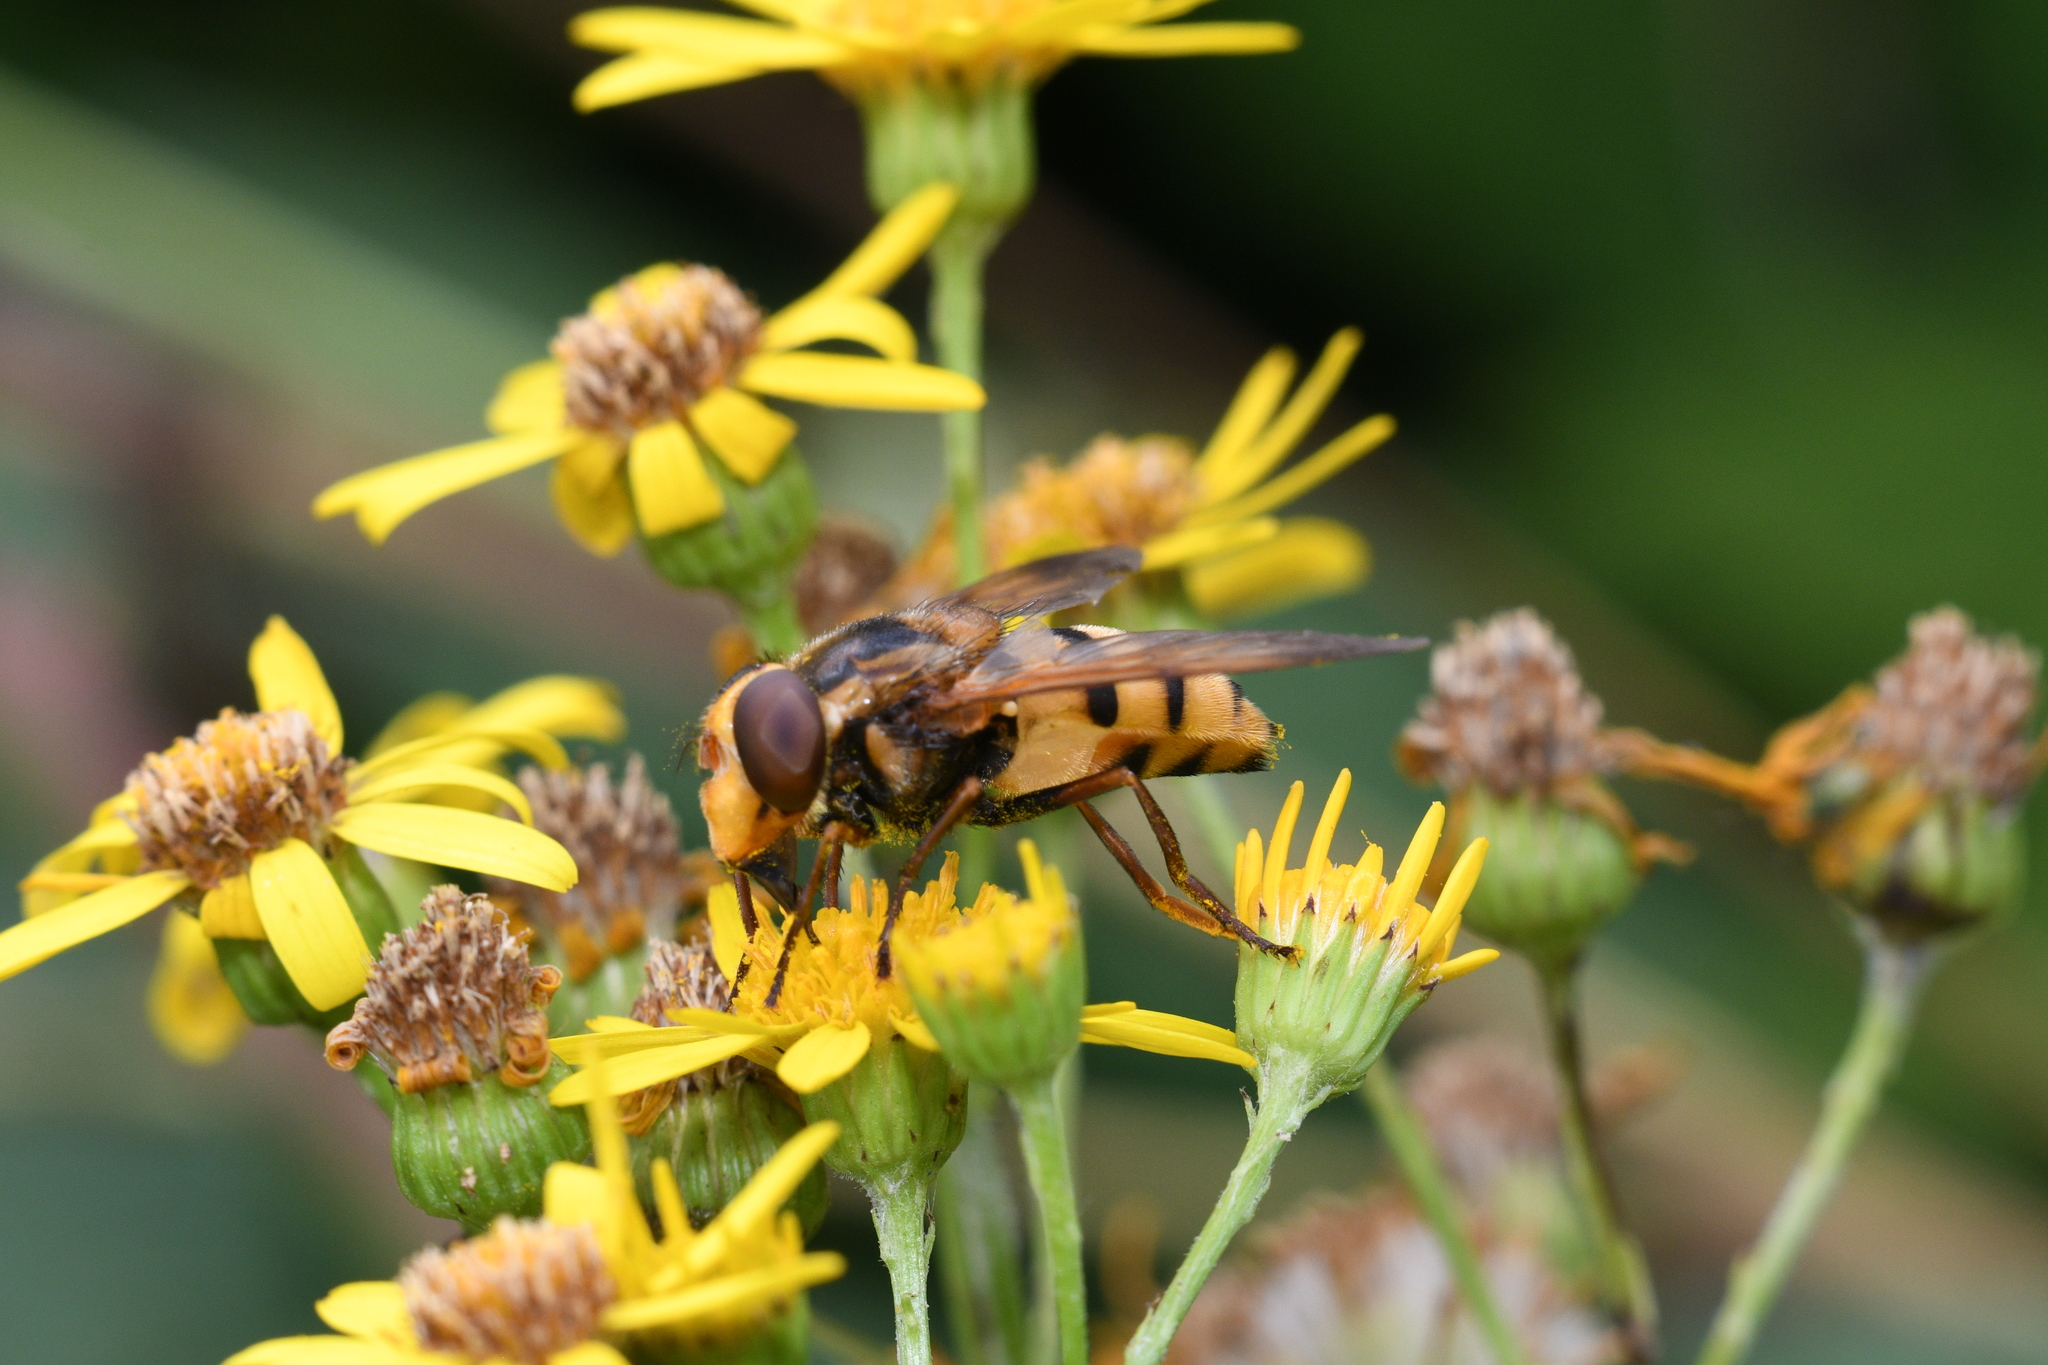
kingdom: Animalia
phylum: Arthropoda
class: Insecta
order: Diptera
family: Syrphidae
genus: Volucella
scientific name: Volucella inanis
